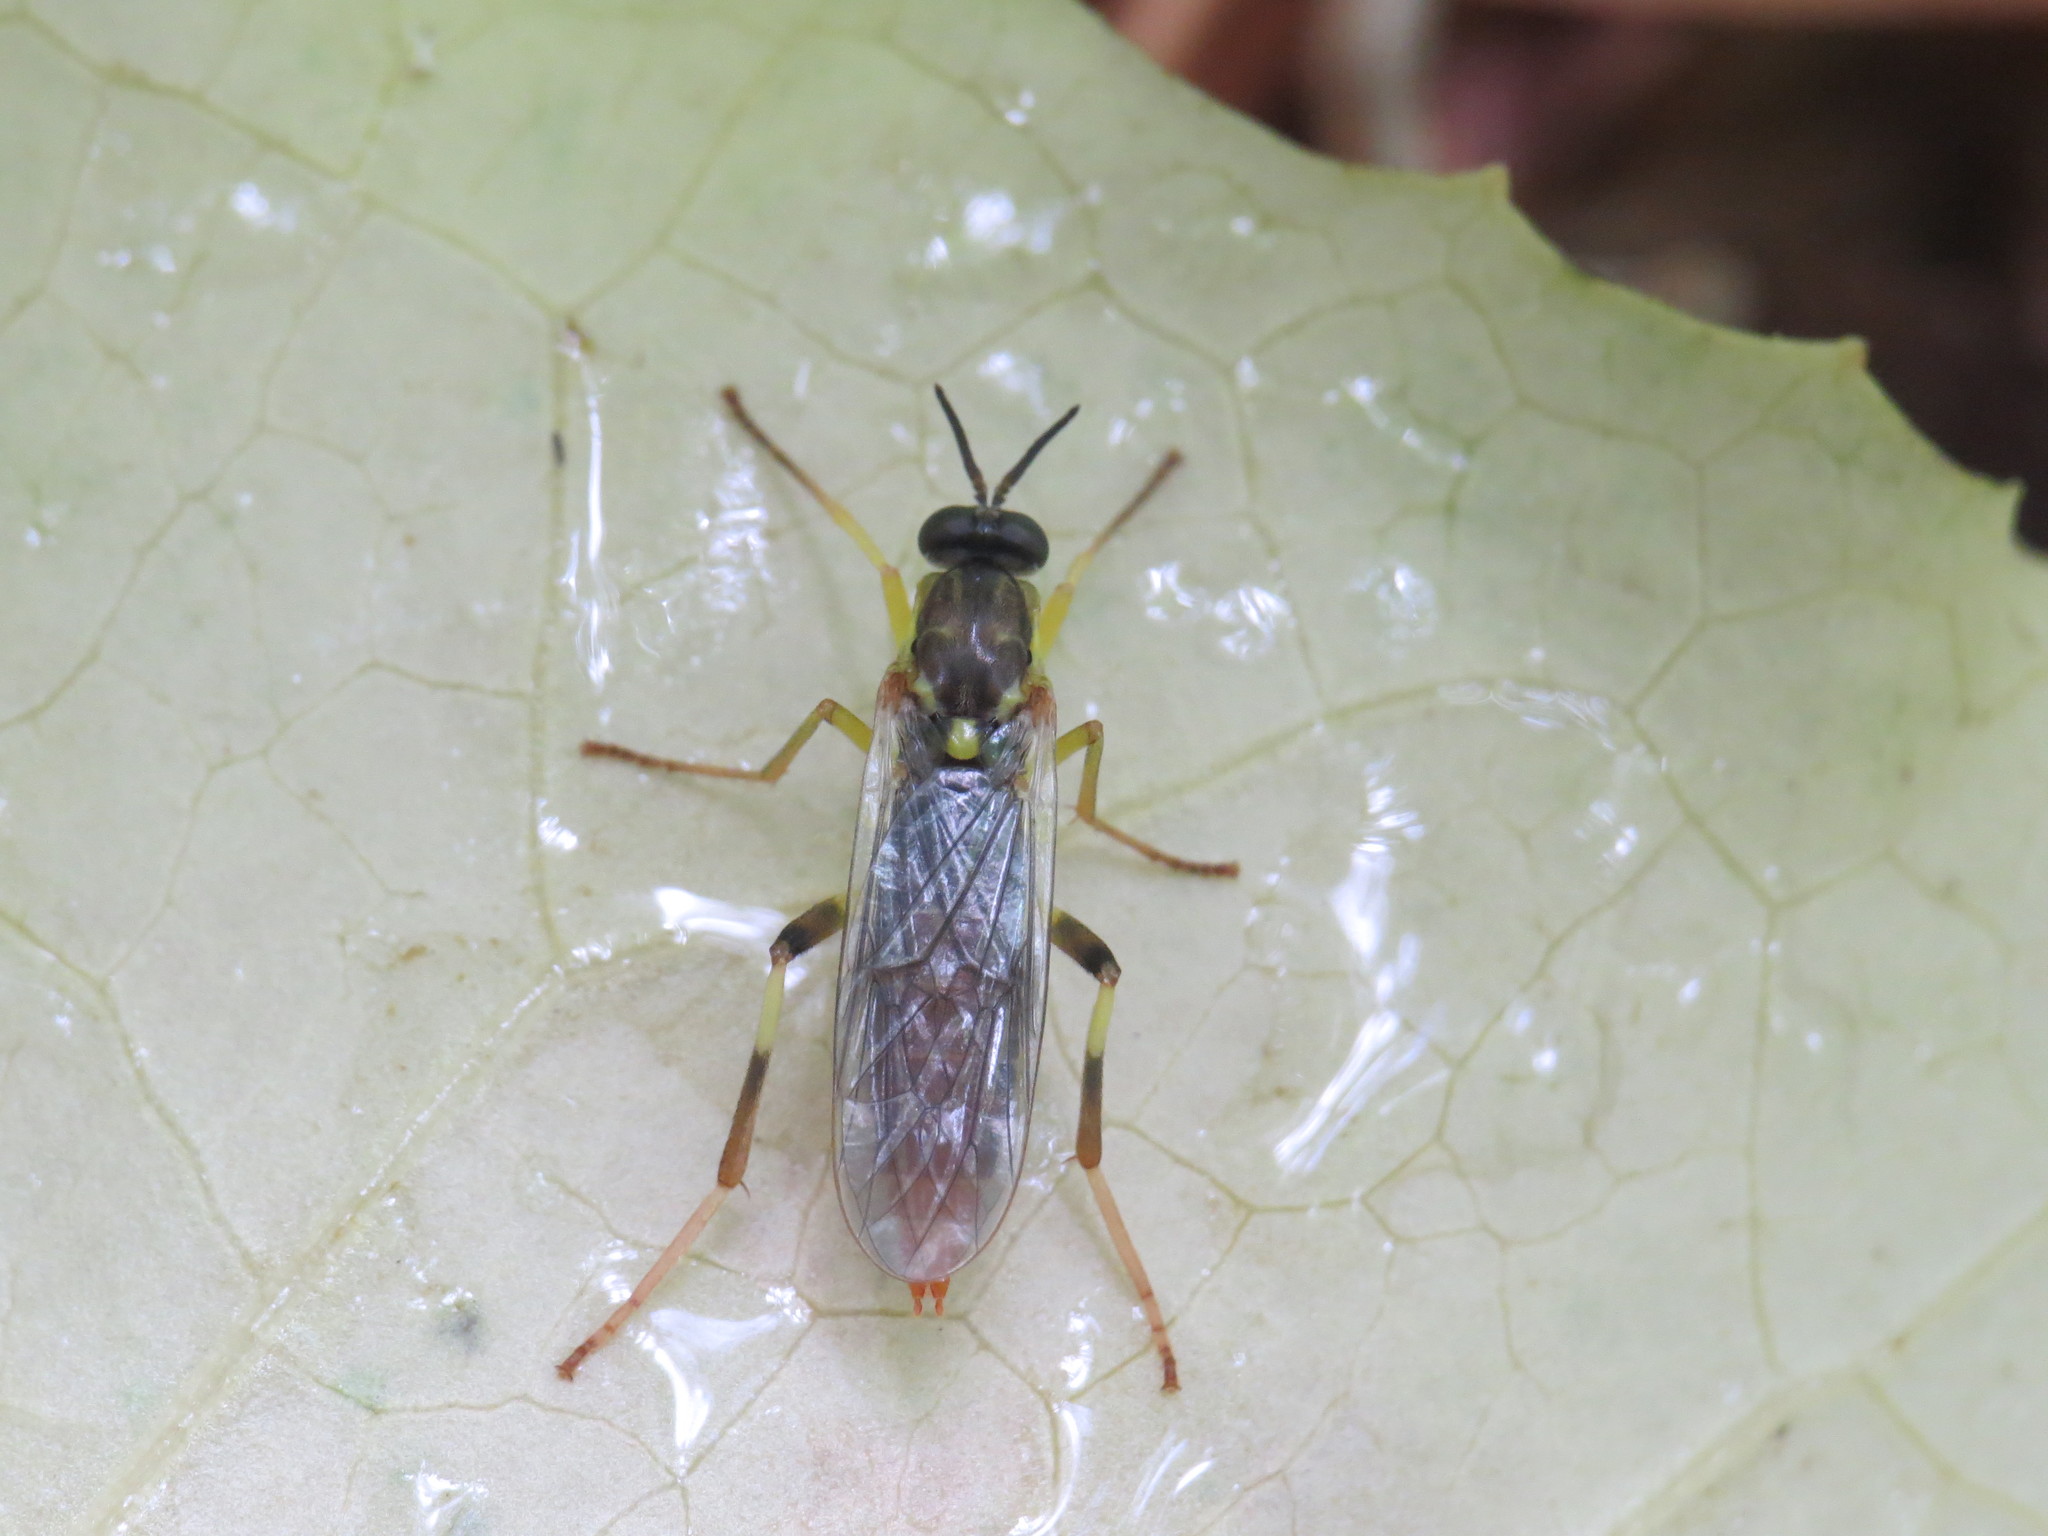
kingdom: Animalia
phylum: Arthropoda
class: Insecta
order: Diptera
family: Xylomyidae
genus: Xylomya
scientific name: Xylomya simillima
